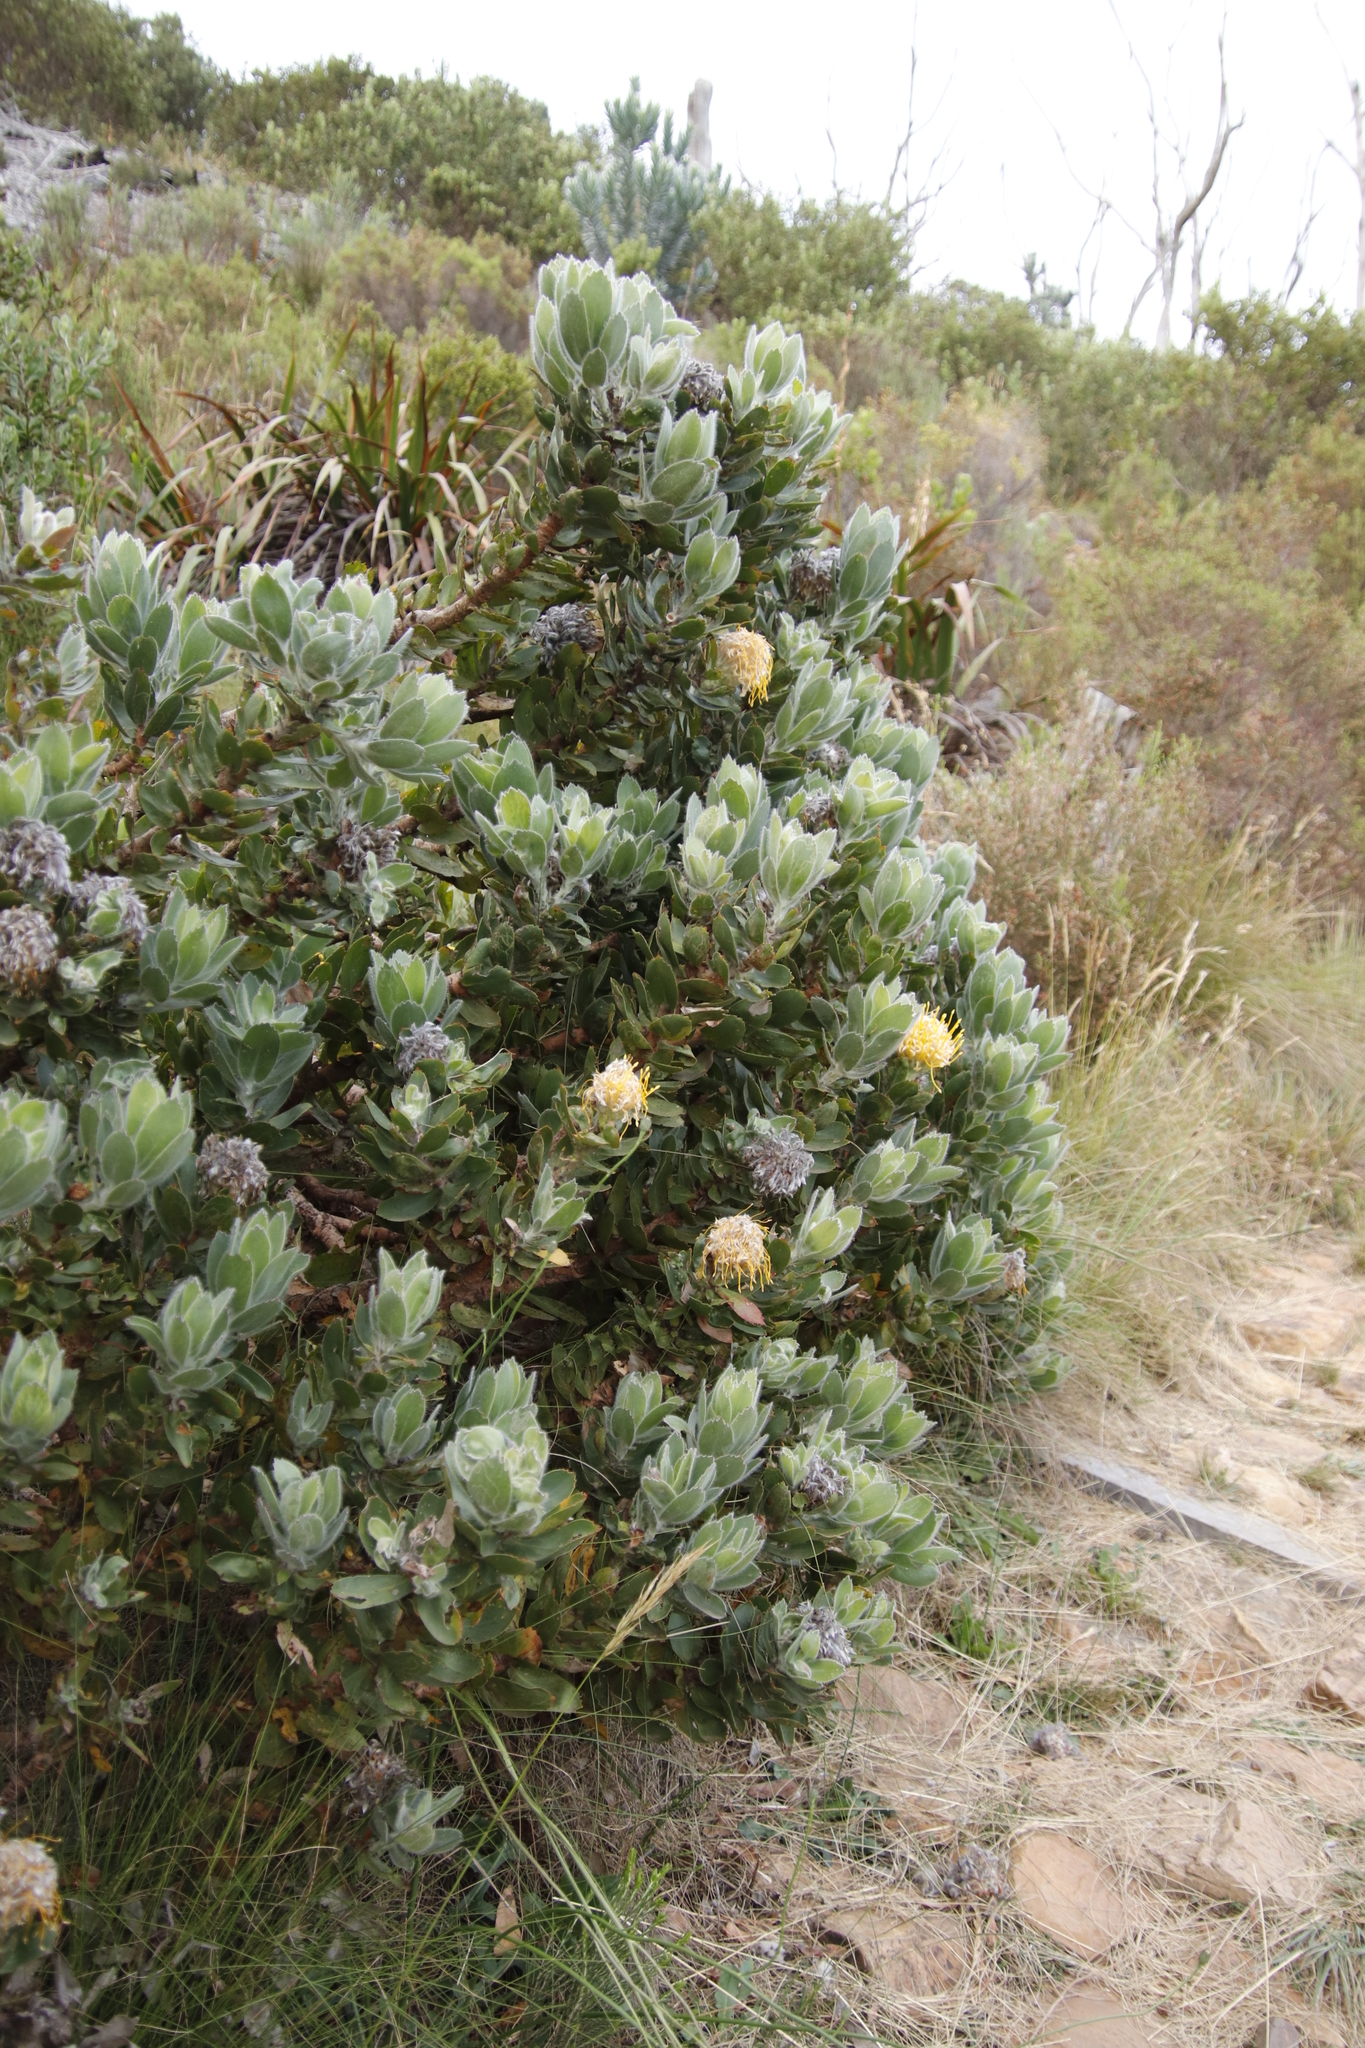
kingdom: Plantae
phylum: Tracheophyta
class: Magnoliopsida
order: Proteales
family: Proteaceae
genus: Leucospermum
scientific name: Leucospermum conocarpodendron
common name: Tree pincushion
